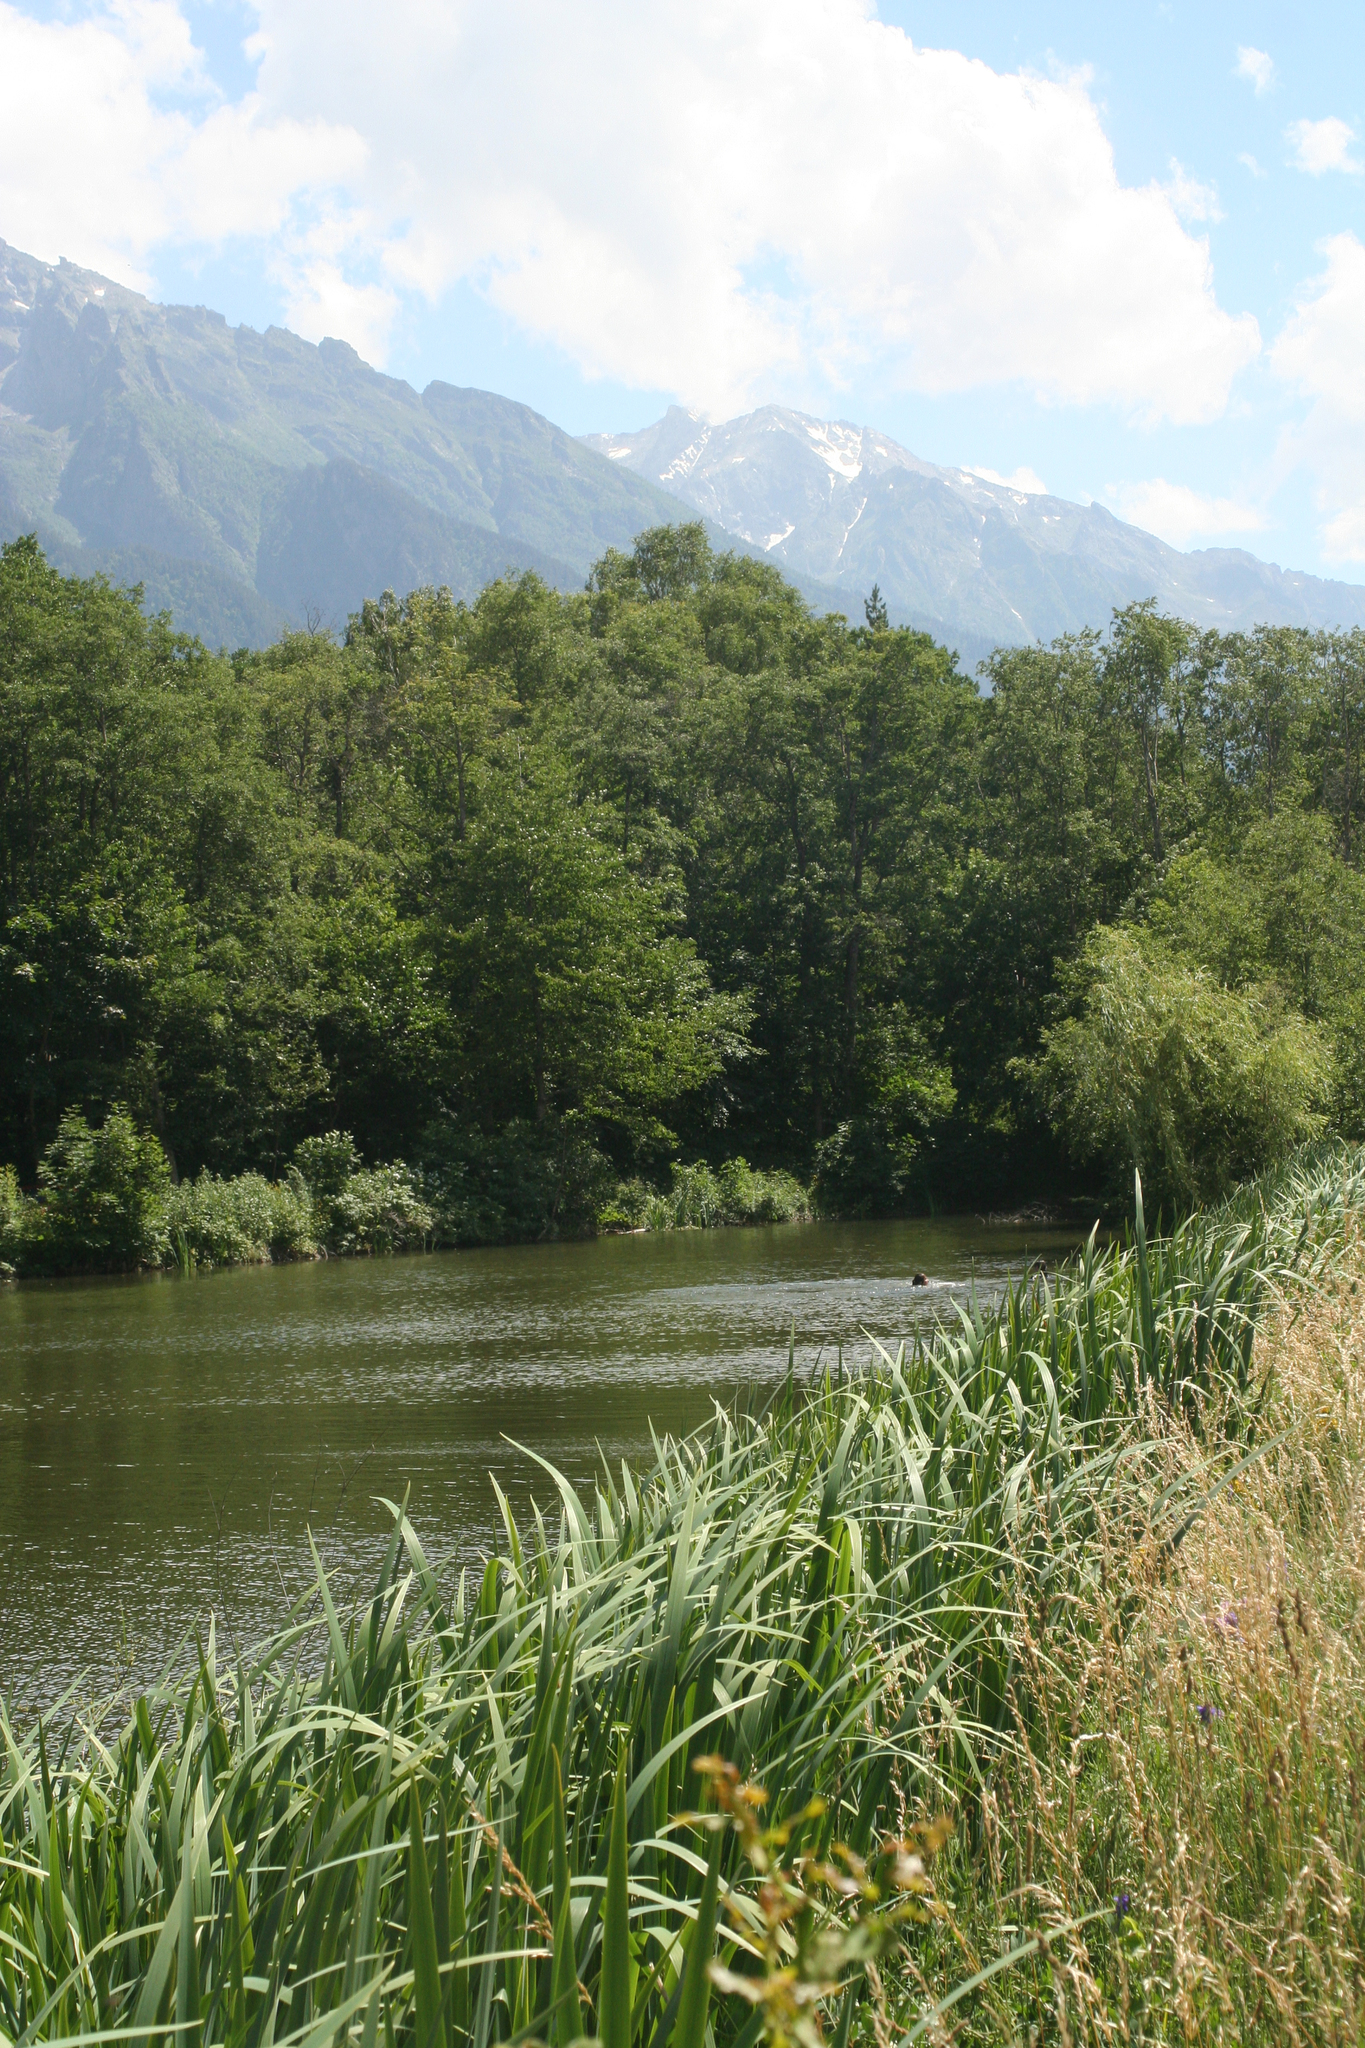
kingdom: Plantae
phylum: Tracheophyta
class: Liliopsida
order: Asparagales
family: Iridaceae
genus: Iris
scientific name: Iris pseudacorus
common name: Yellow flag
